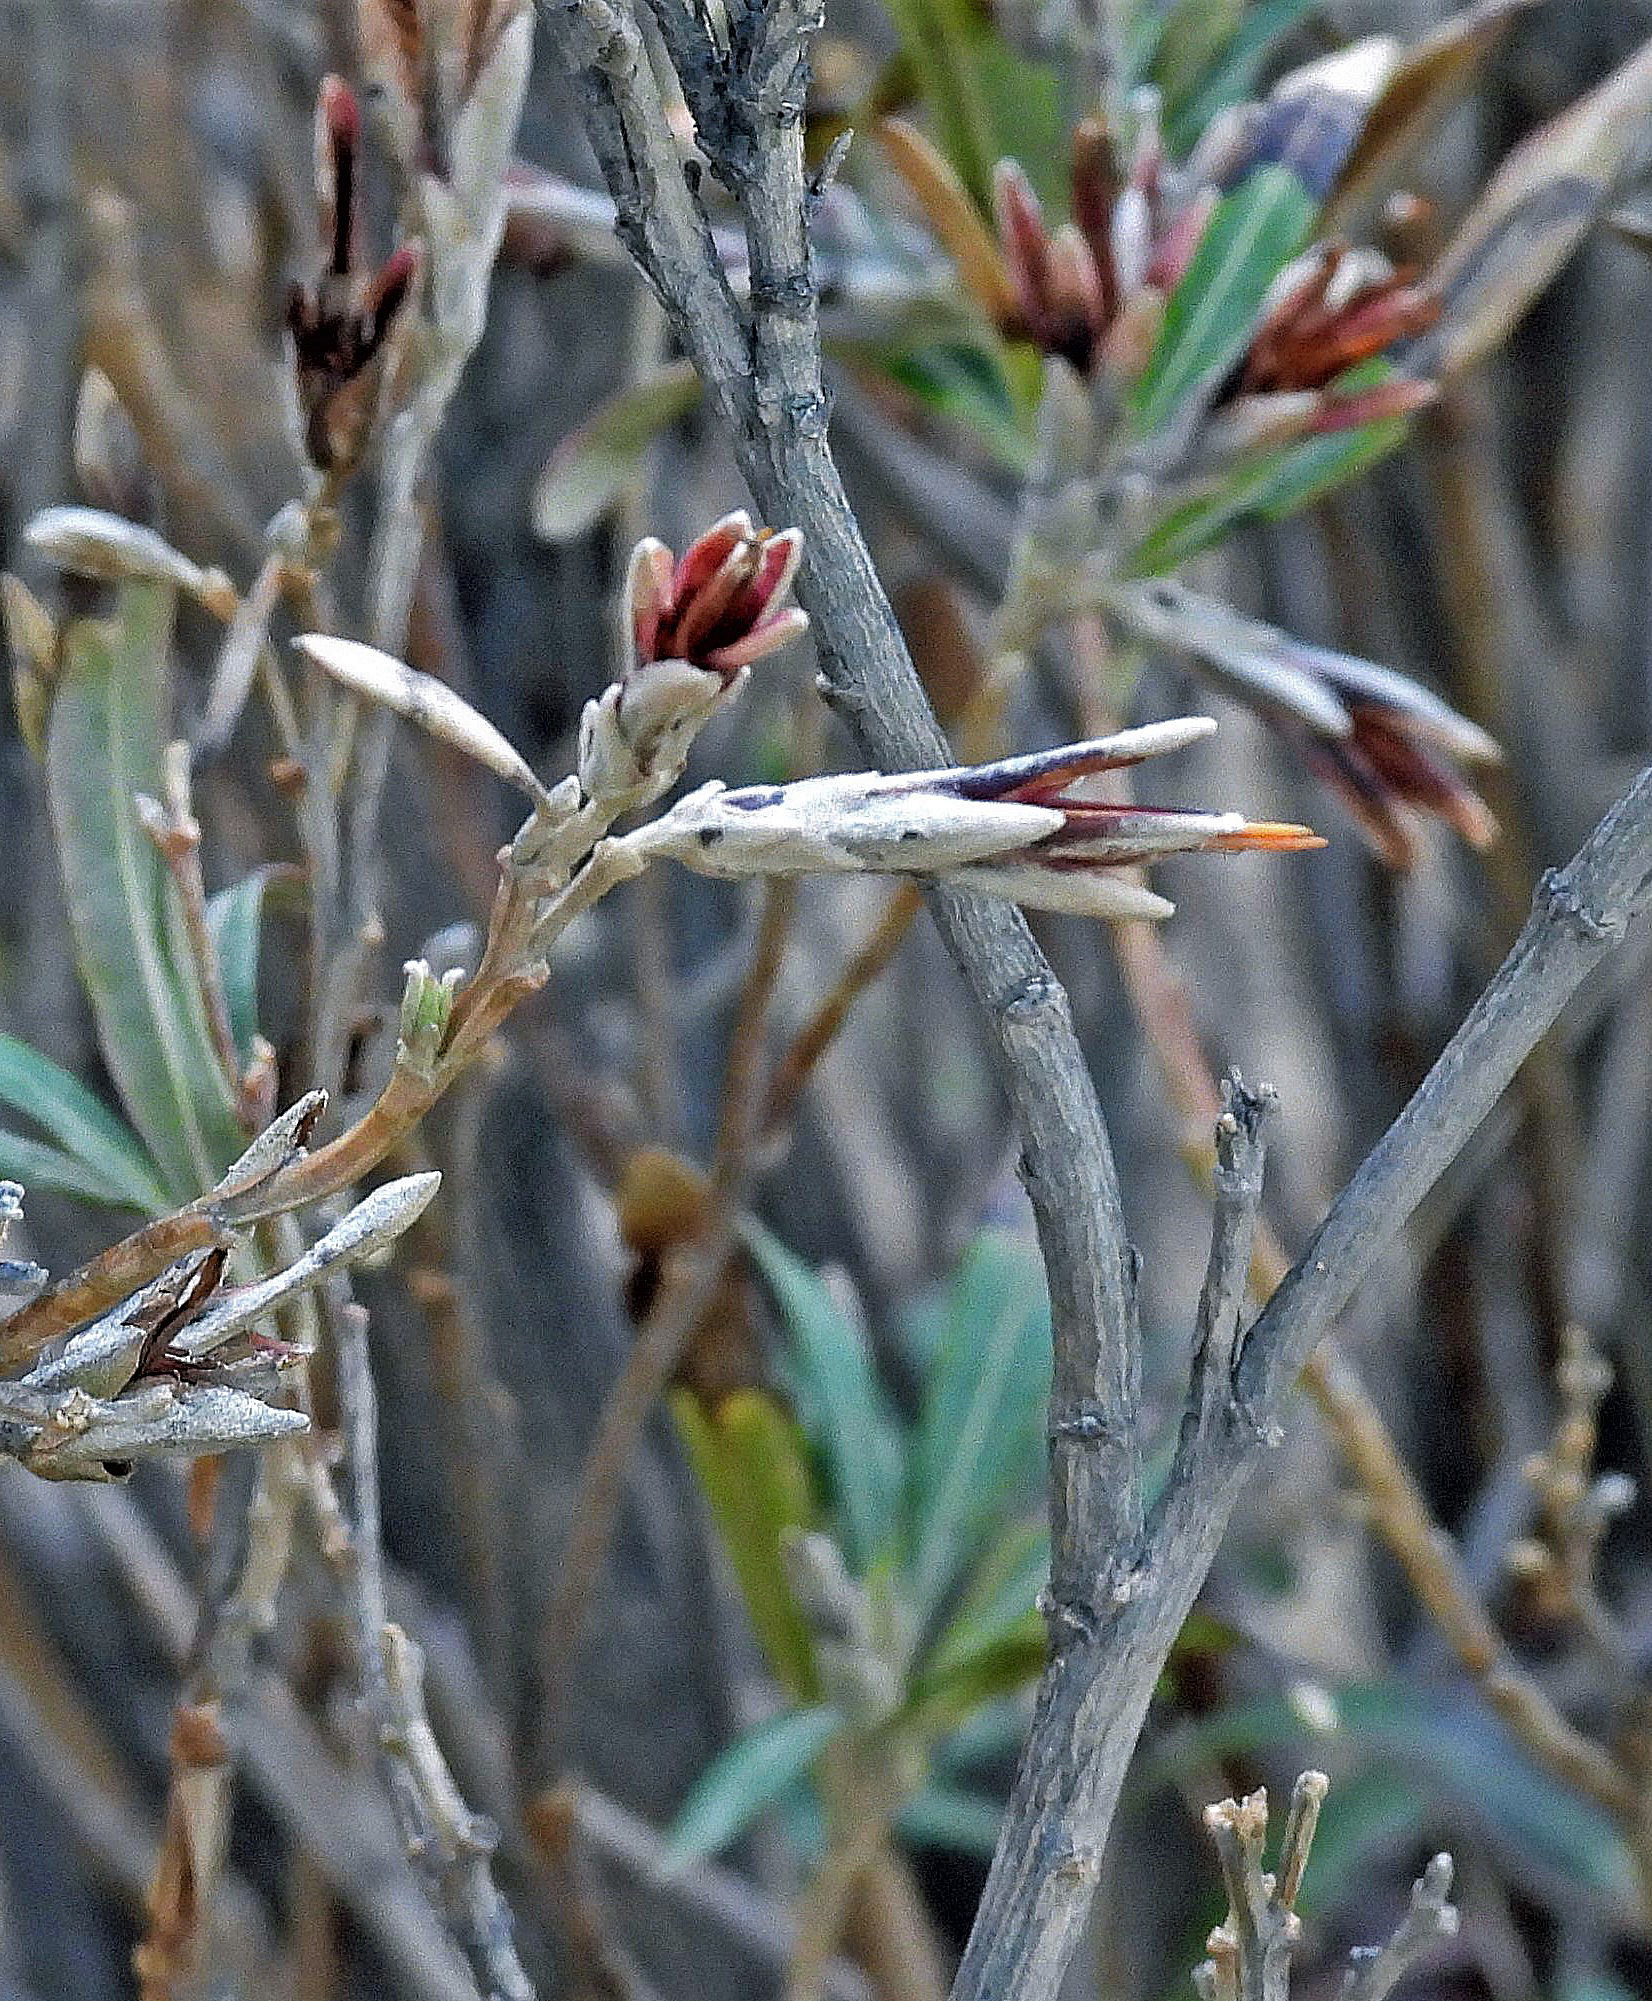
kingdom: Plantae
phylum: Tracheophyta
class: Magnoliopsida
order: Asterales
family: Asteraceae
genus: Mutisia
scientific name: Mutisia orbignyana
